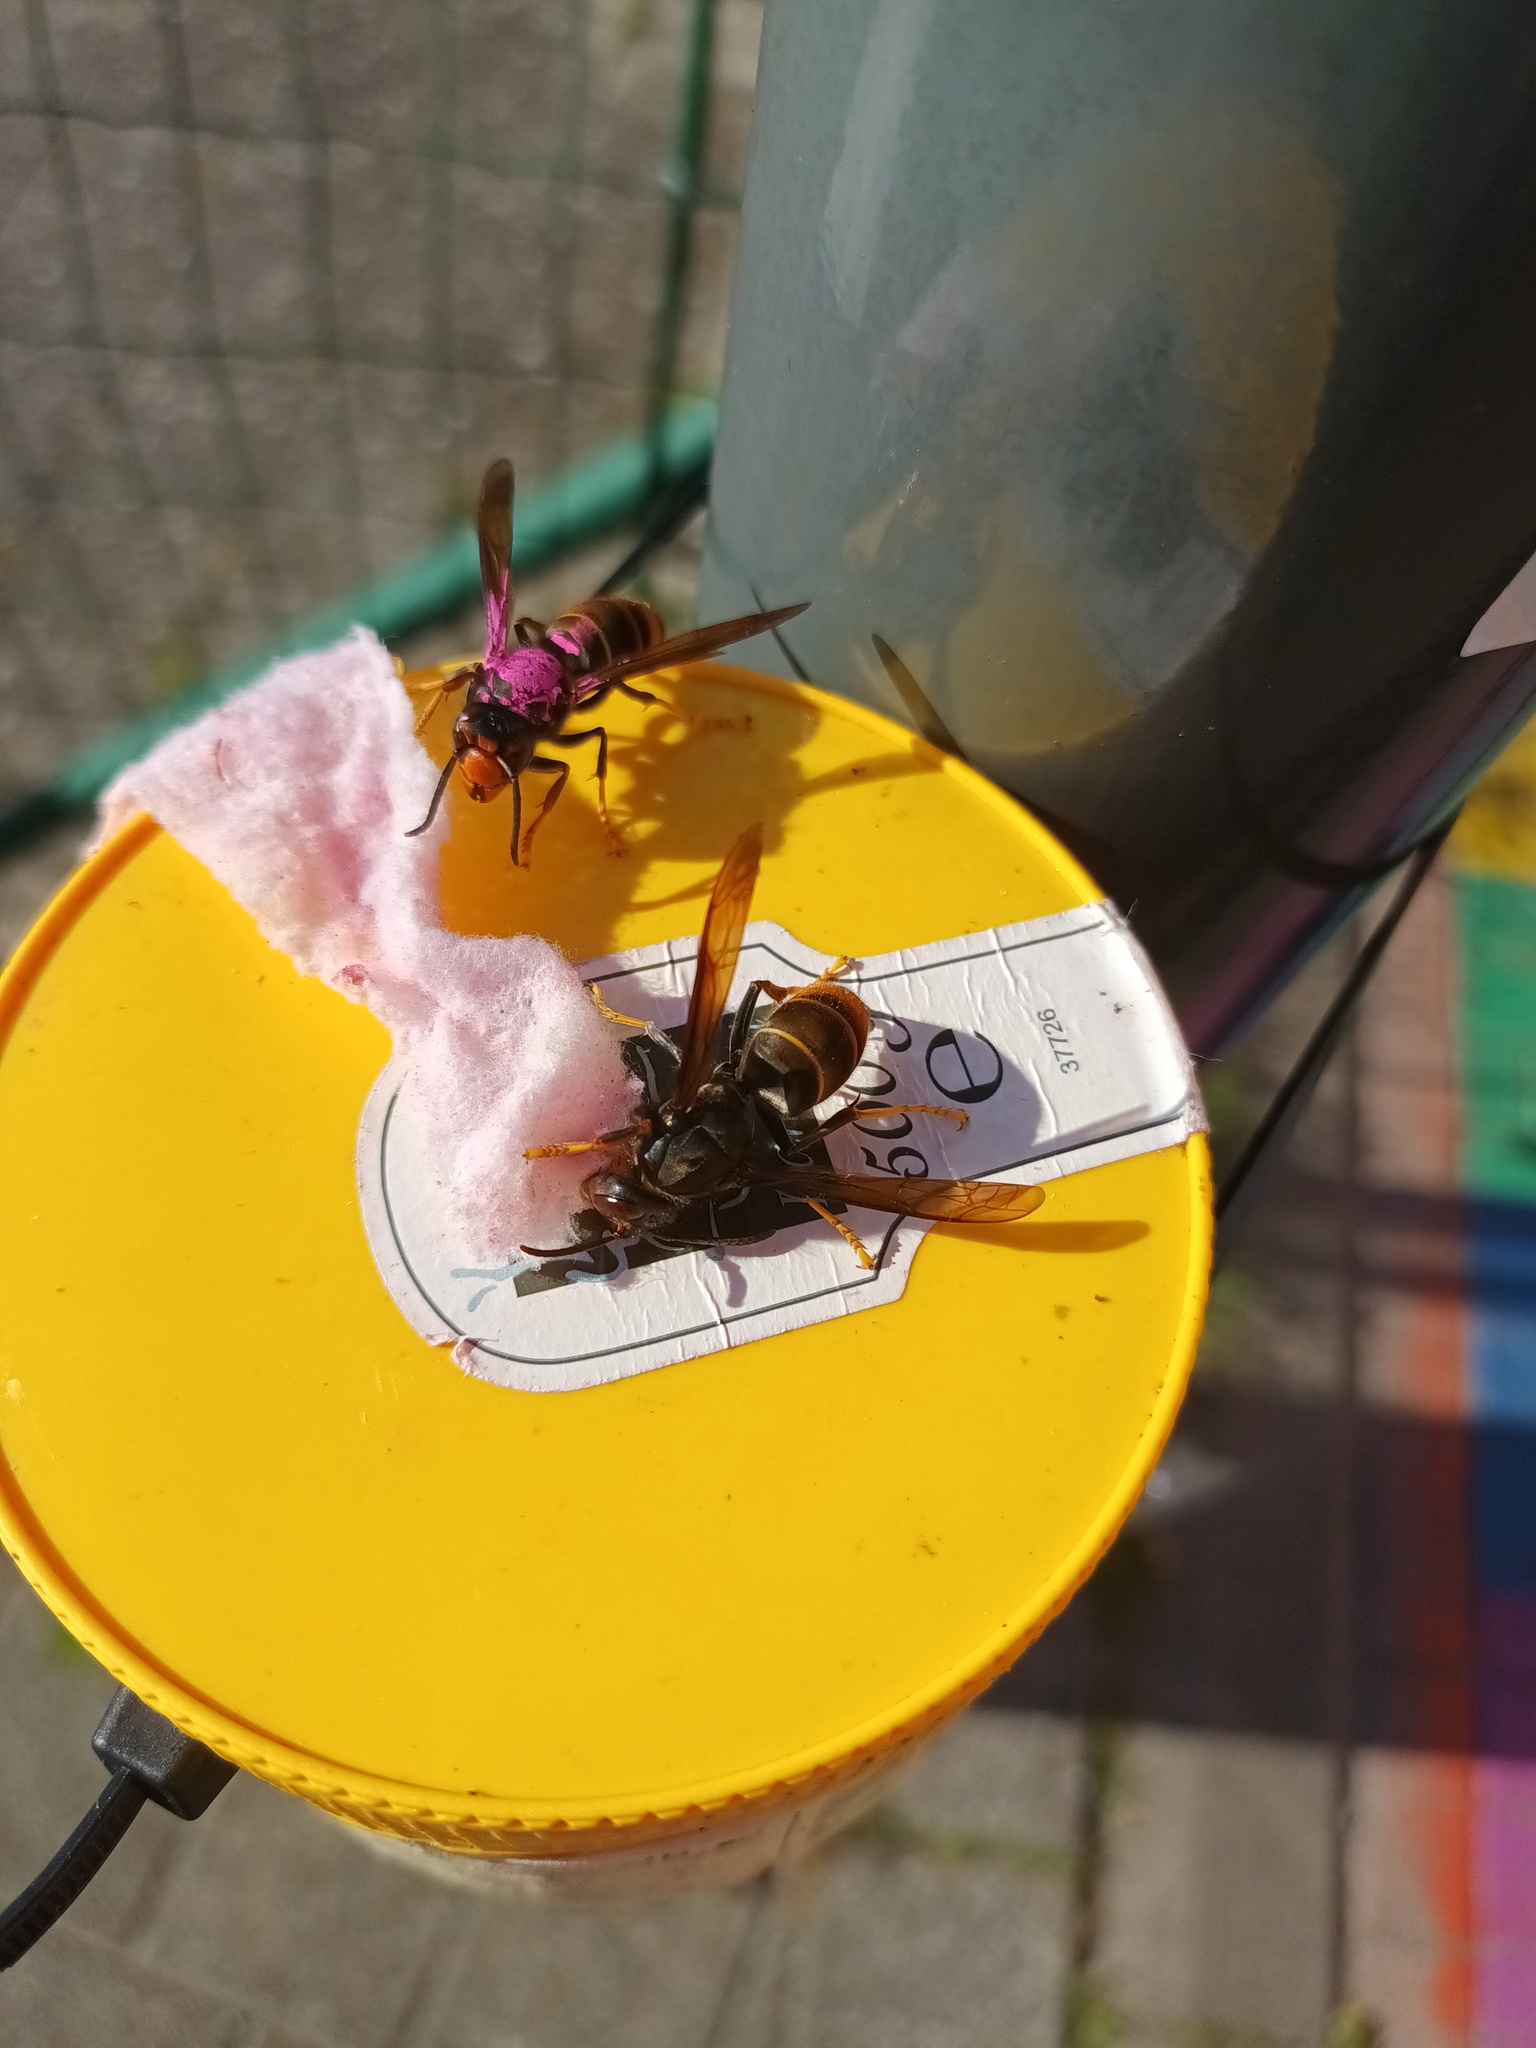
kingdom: Animalia
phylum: Arthropoda
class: Insecta
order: Hymenoptera
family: Vespidae
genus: Vespa
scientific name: Vespa velutina
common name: Asian hornet
